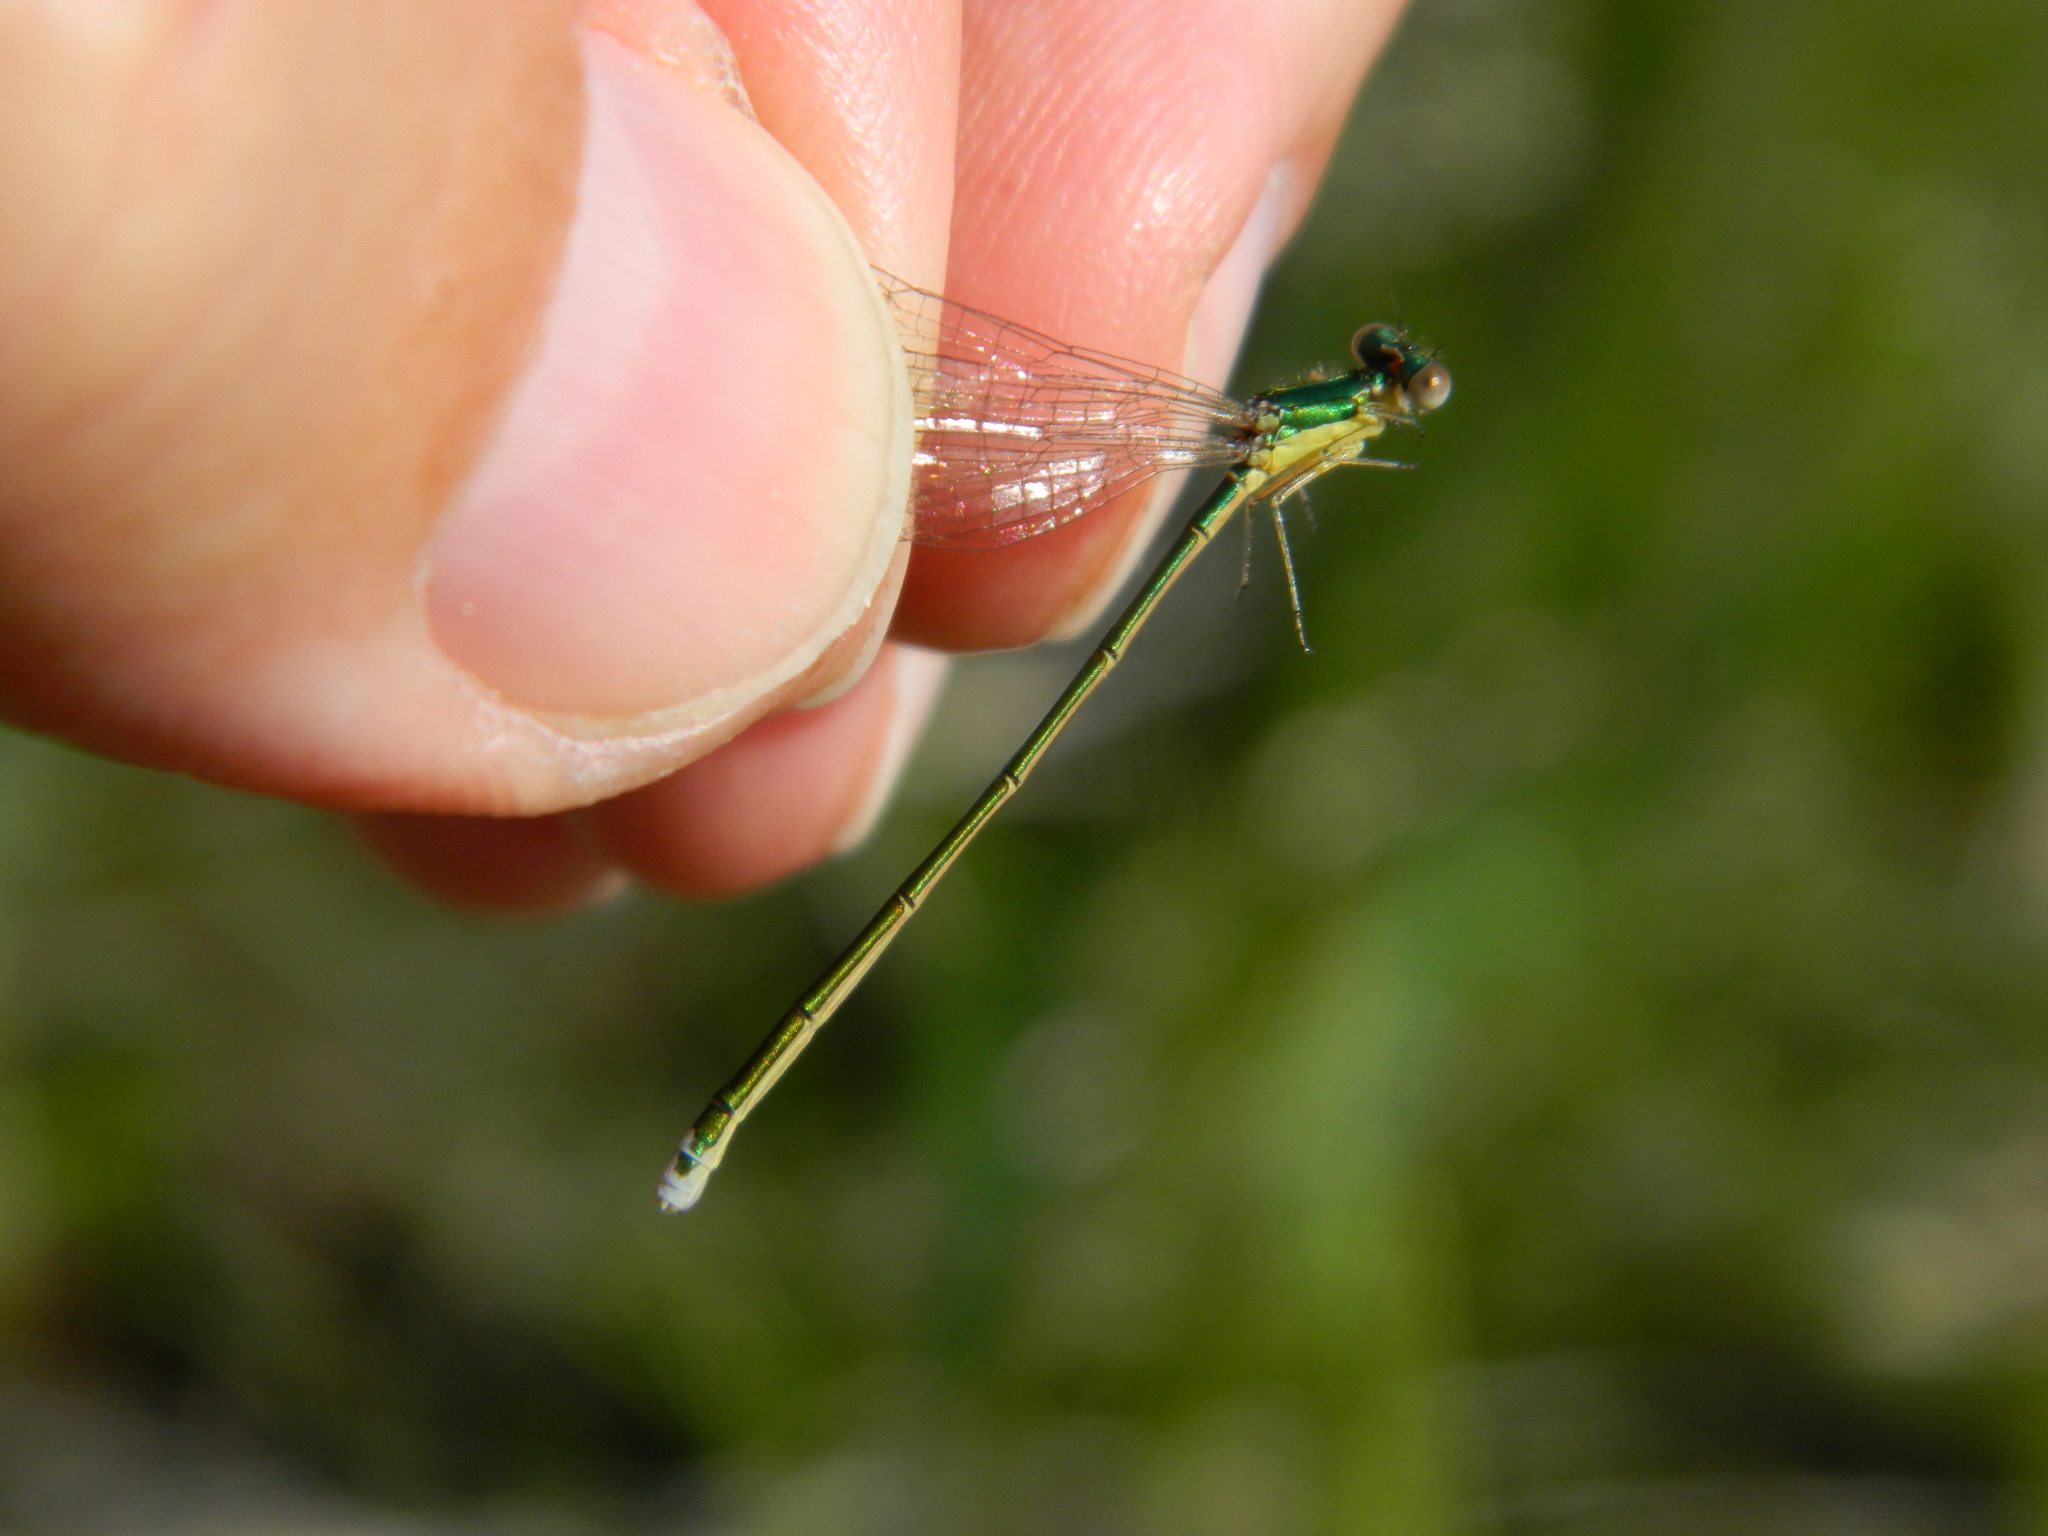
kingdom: Animalia
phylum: Arthropoda
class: Insecta
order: Odonata
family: Coenagrionidae
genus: Nehalennia
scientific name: Nehalennia irene
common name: Sedge sprite
